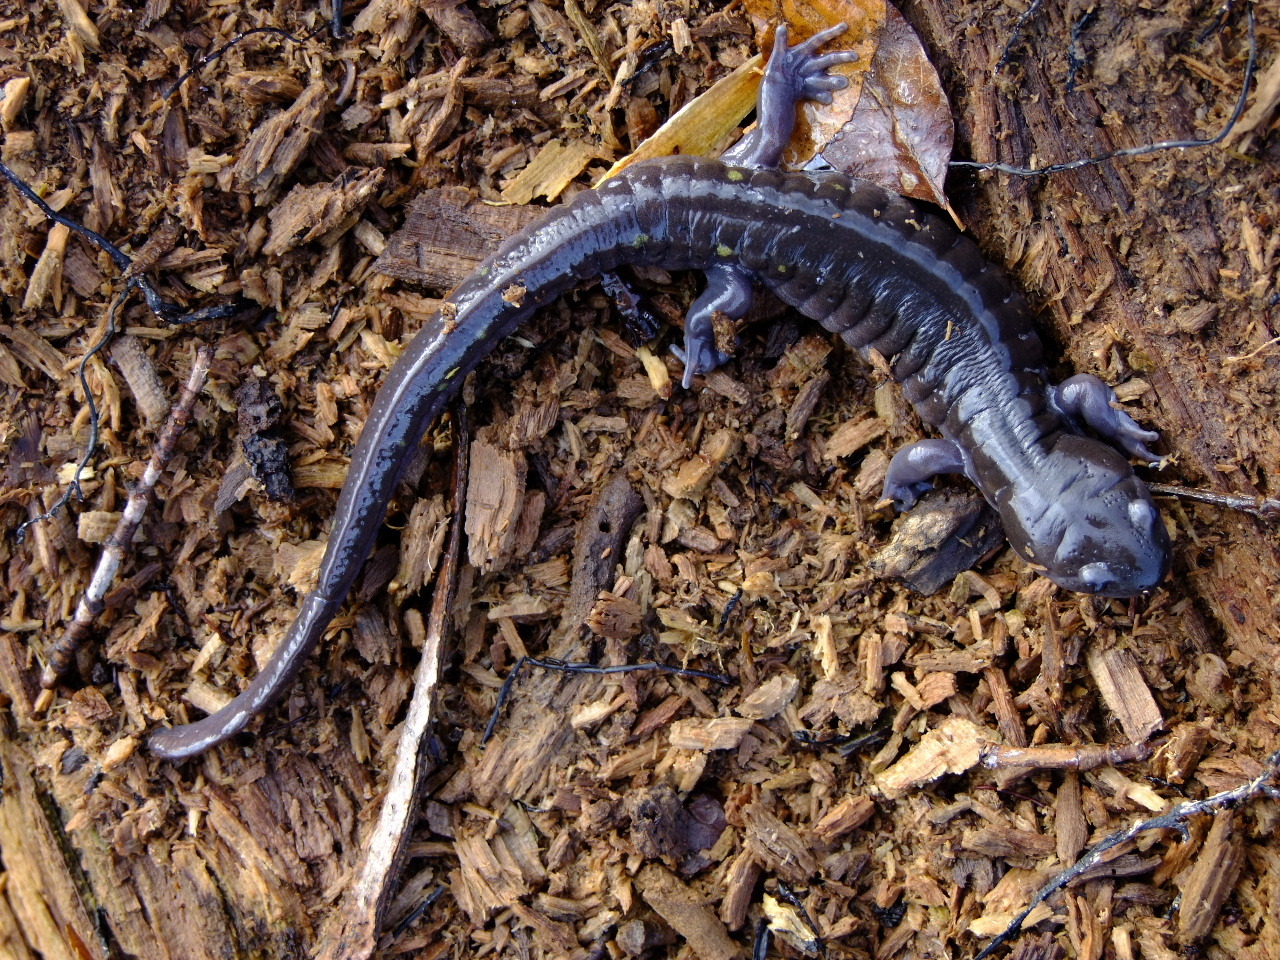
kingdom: Animalia
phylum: Chordata
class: Amphibia
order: Caudata
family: Ambystomatidae
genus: Ambystoma
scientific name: Ambystoma maculatum
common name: Spotted salamander
